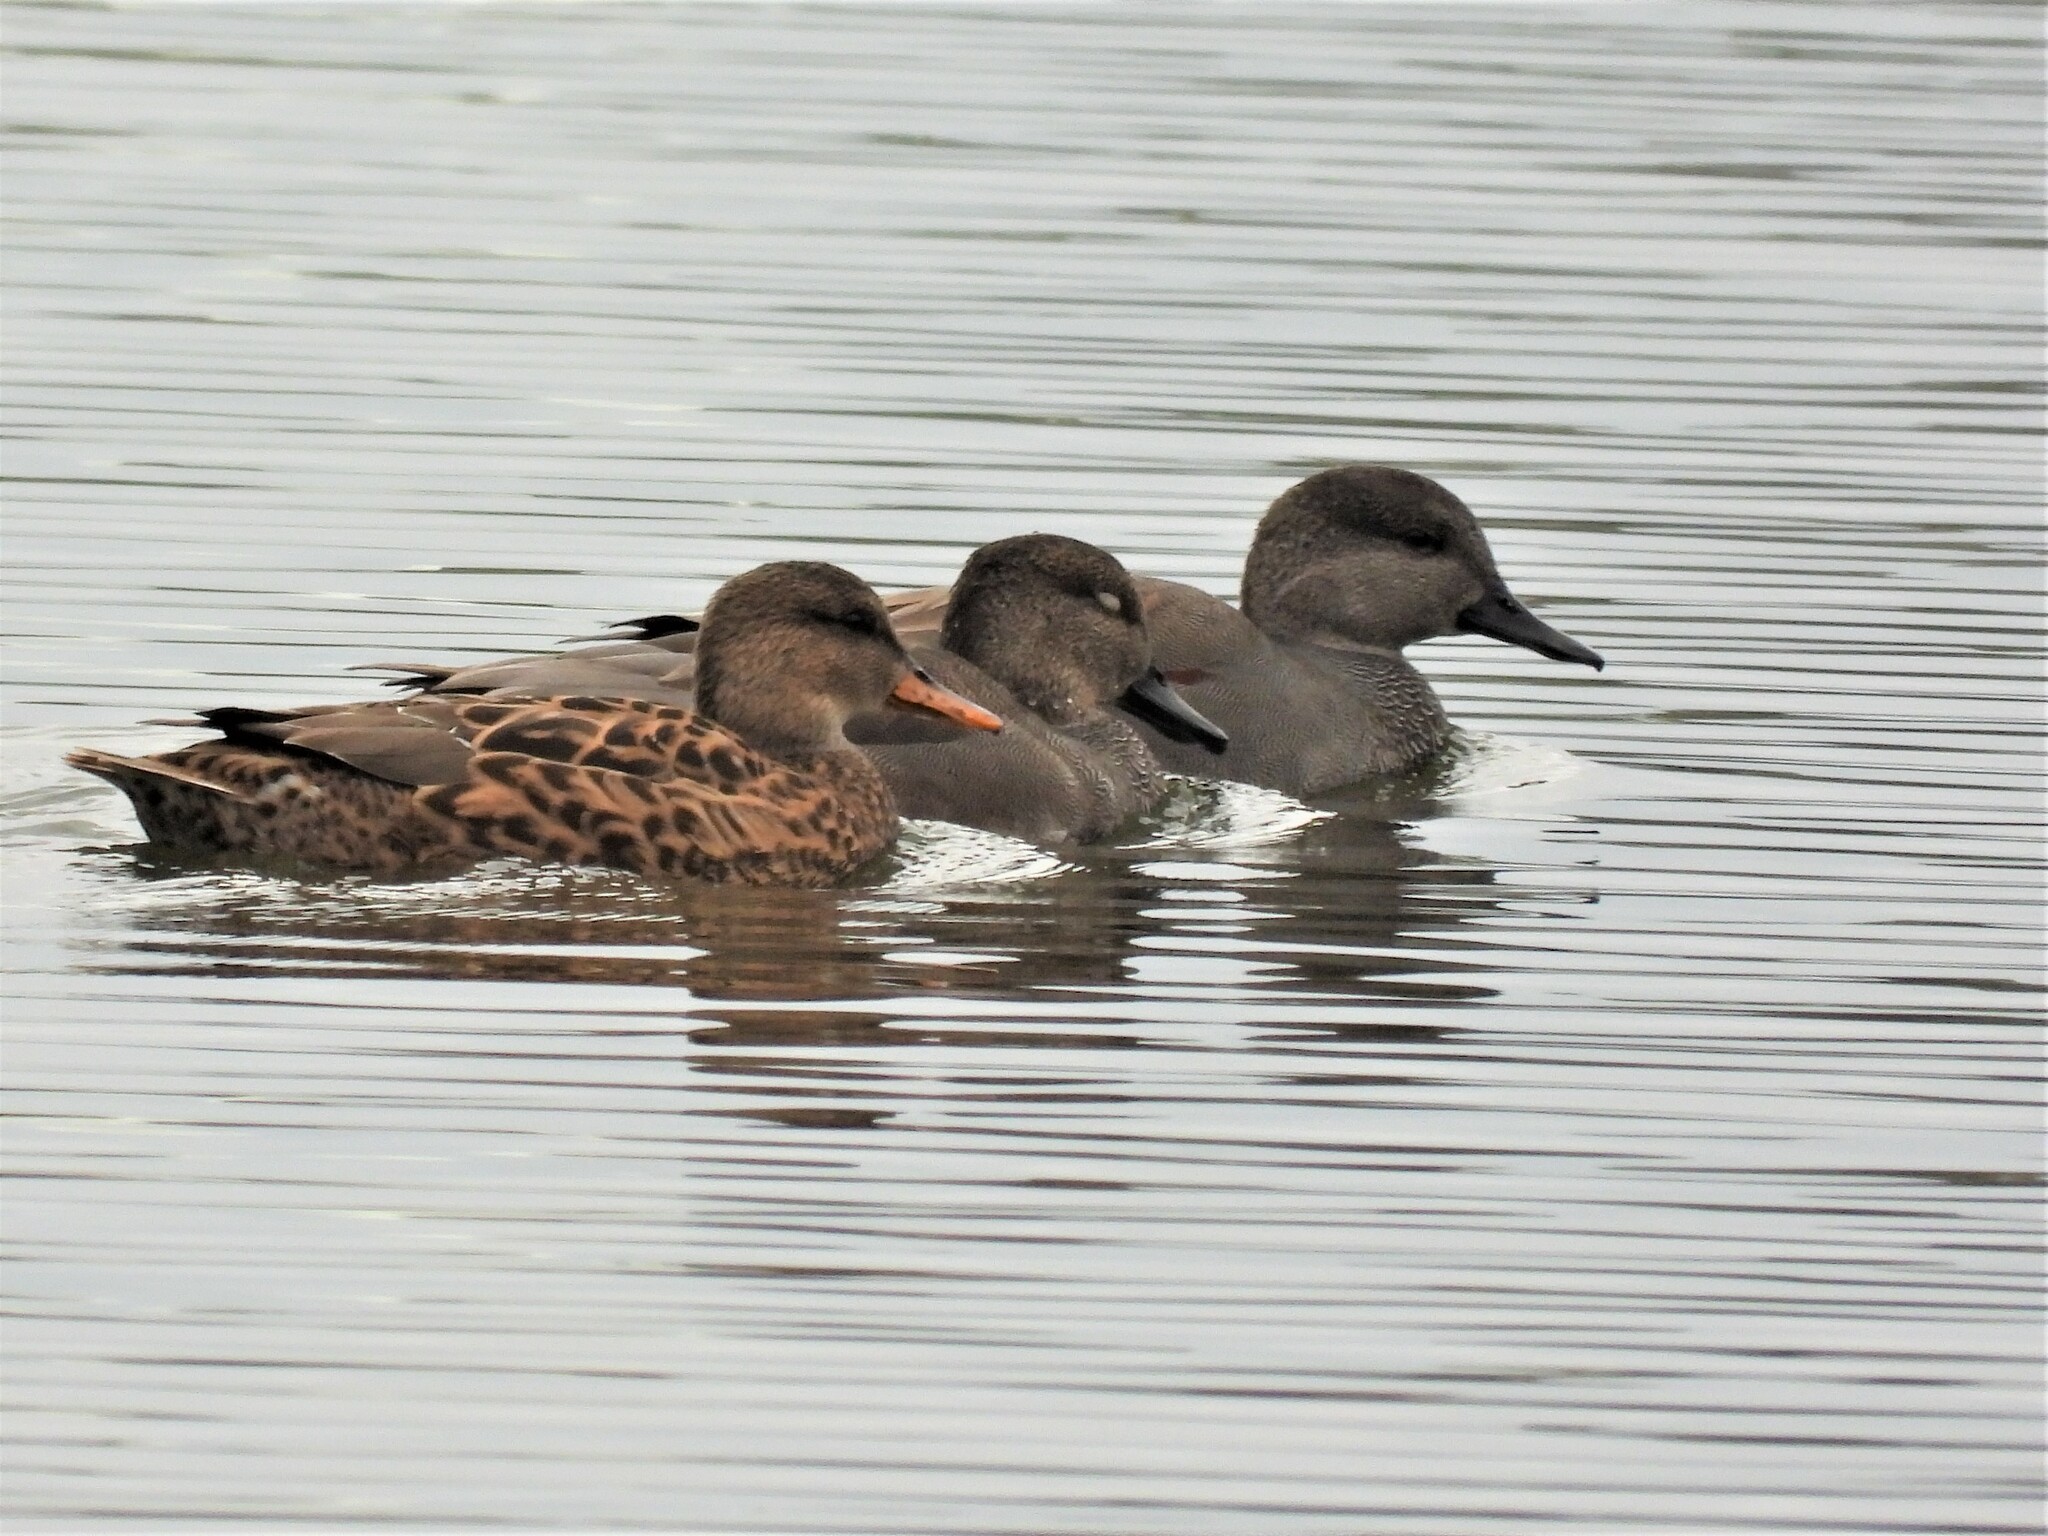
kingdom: Animalia
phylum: Chordata
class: Aves
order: Anseriformes
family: Anatidae
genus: Mareca
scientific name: Mareca strepera
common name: Gadwall
